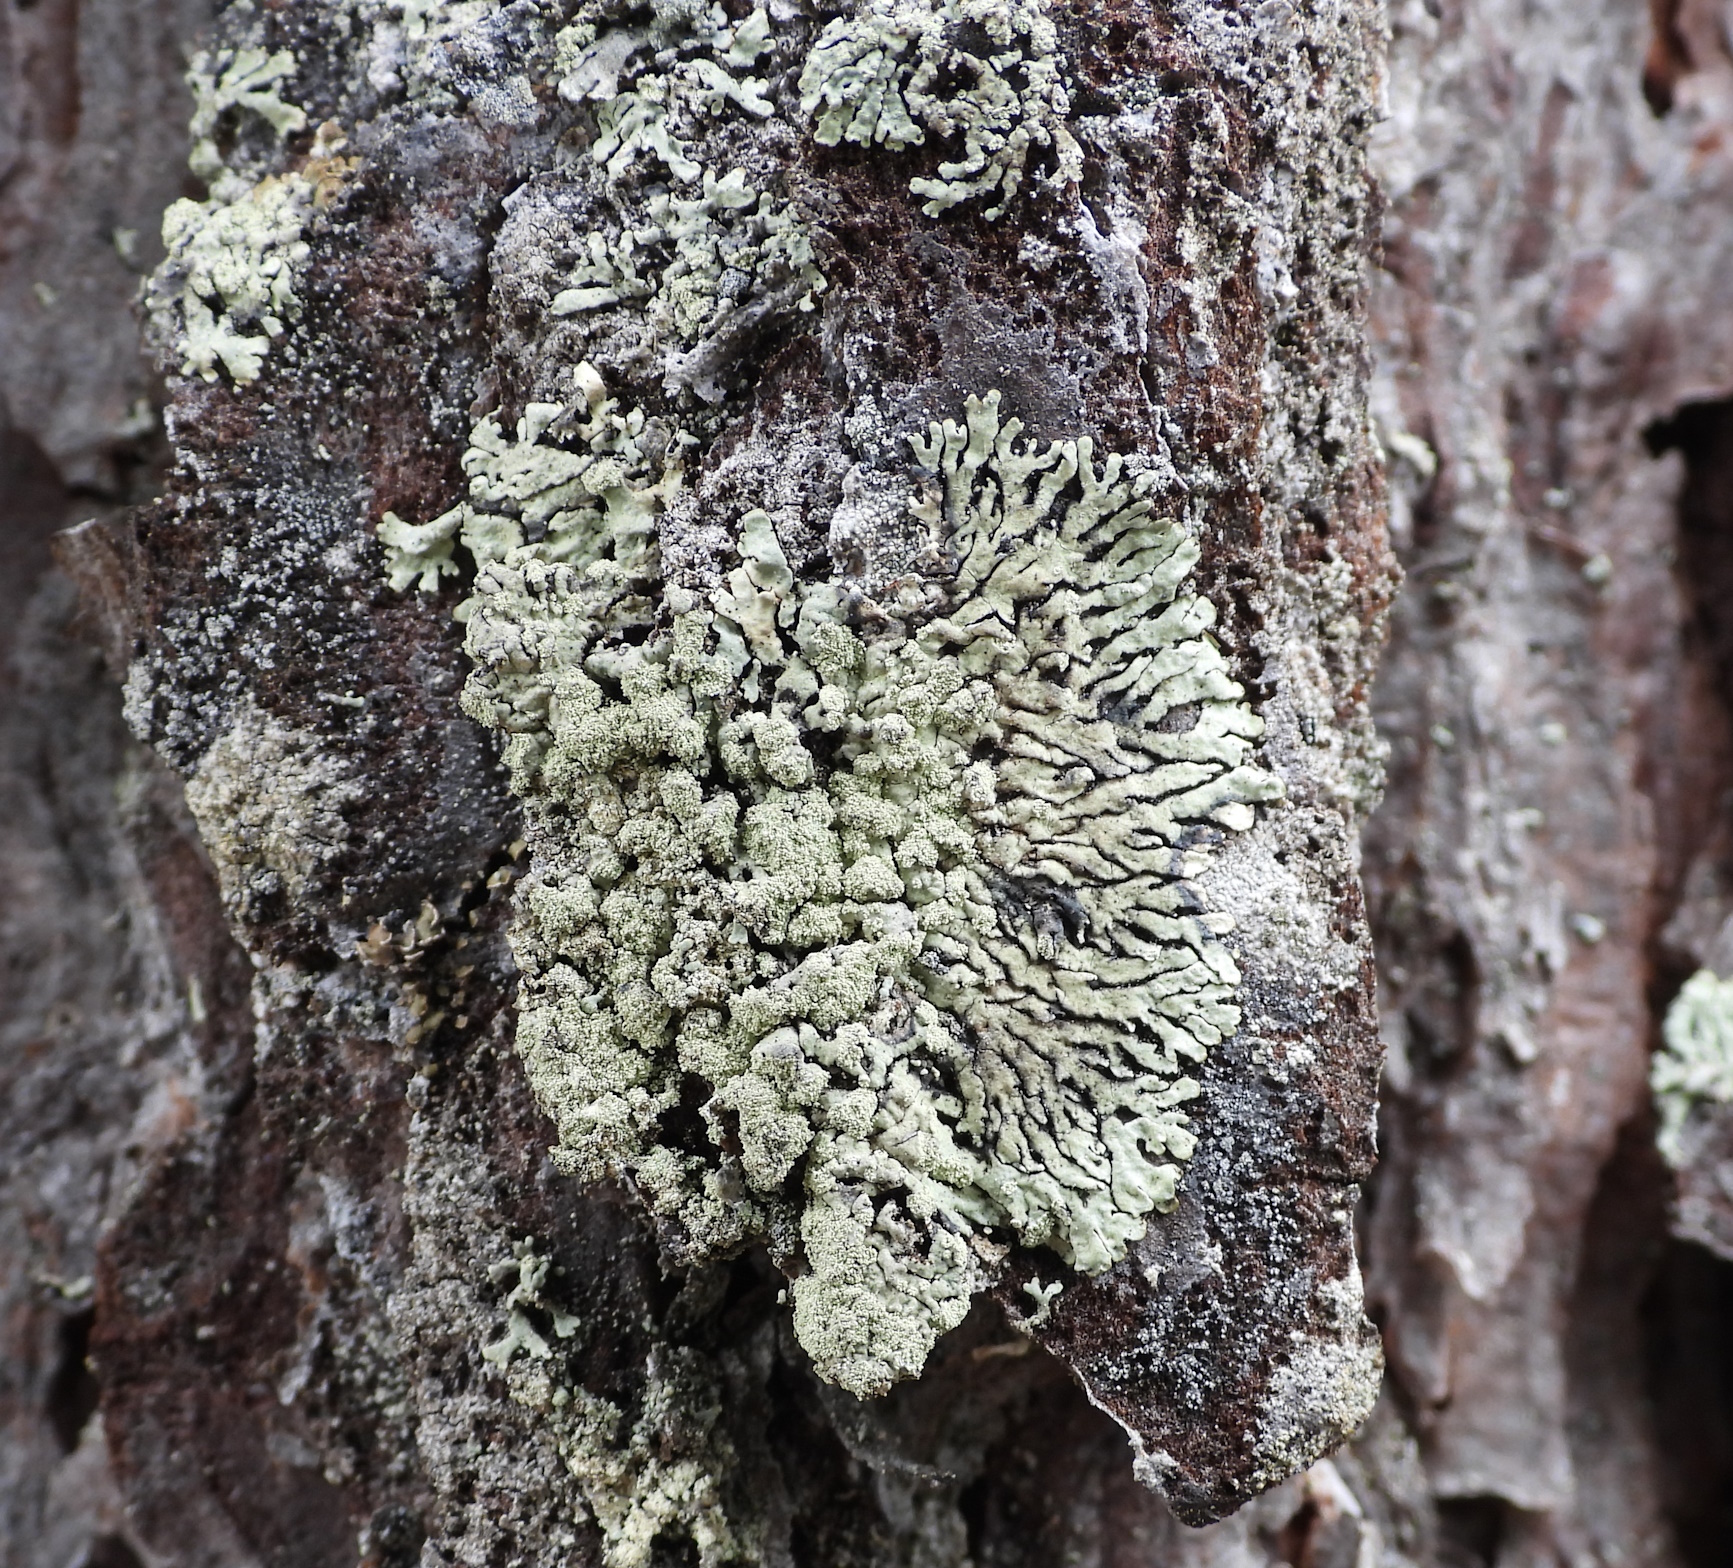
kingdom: Fungi
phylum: Ascomycota
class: Lecanoromycetes
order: Lecanorales
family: Parmeliaceae
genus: Parmeliopsis
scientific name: Parmeliopsis ambigua
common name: Green starburst lichen
